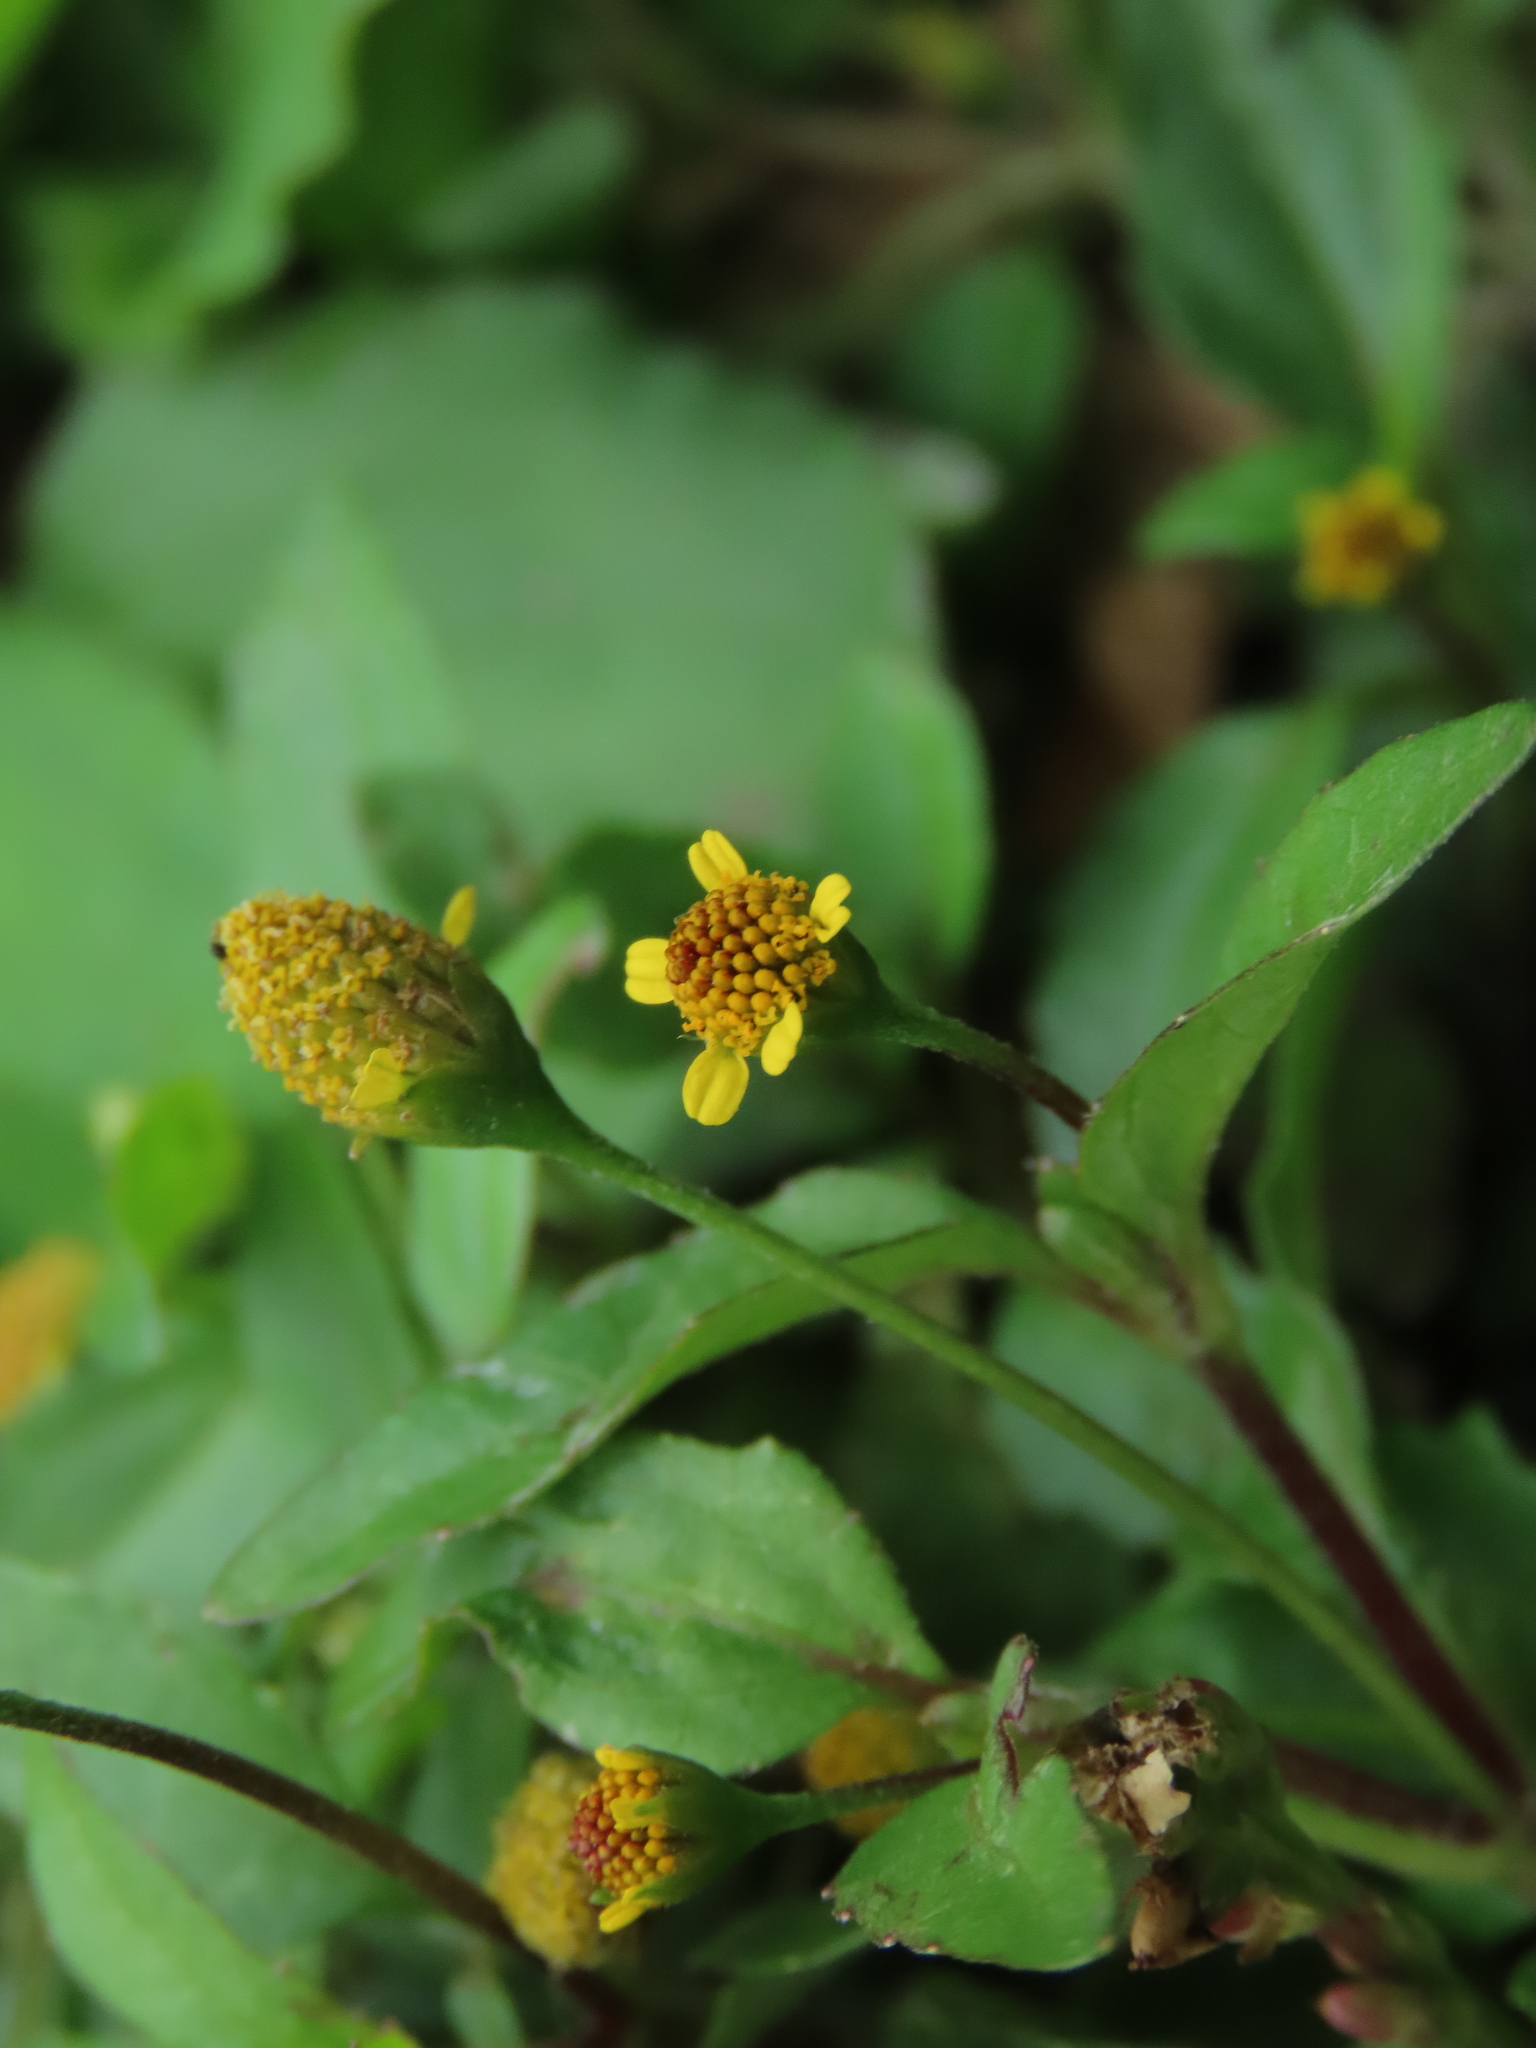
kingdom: Plantae
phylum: Tracheophyta
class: Magnoliopsida
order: Asterales
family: Asteraceae
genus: Acmella
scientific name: Acmella uliginosa
